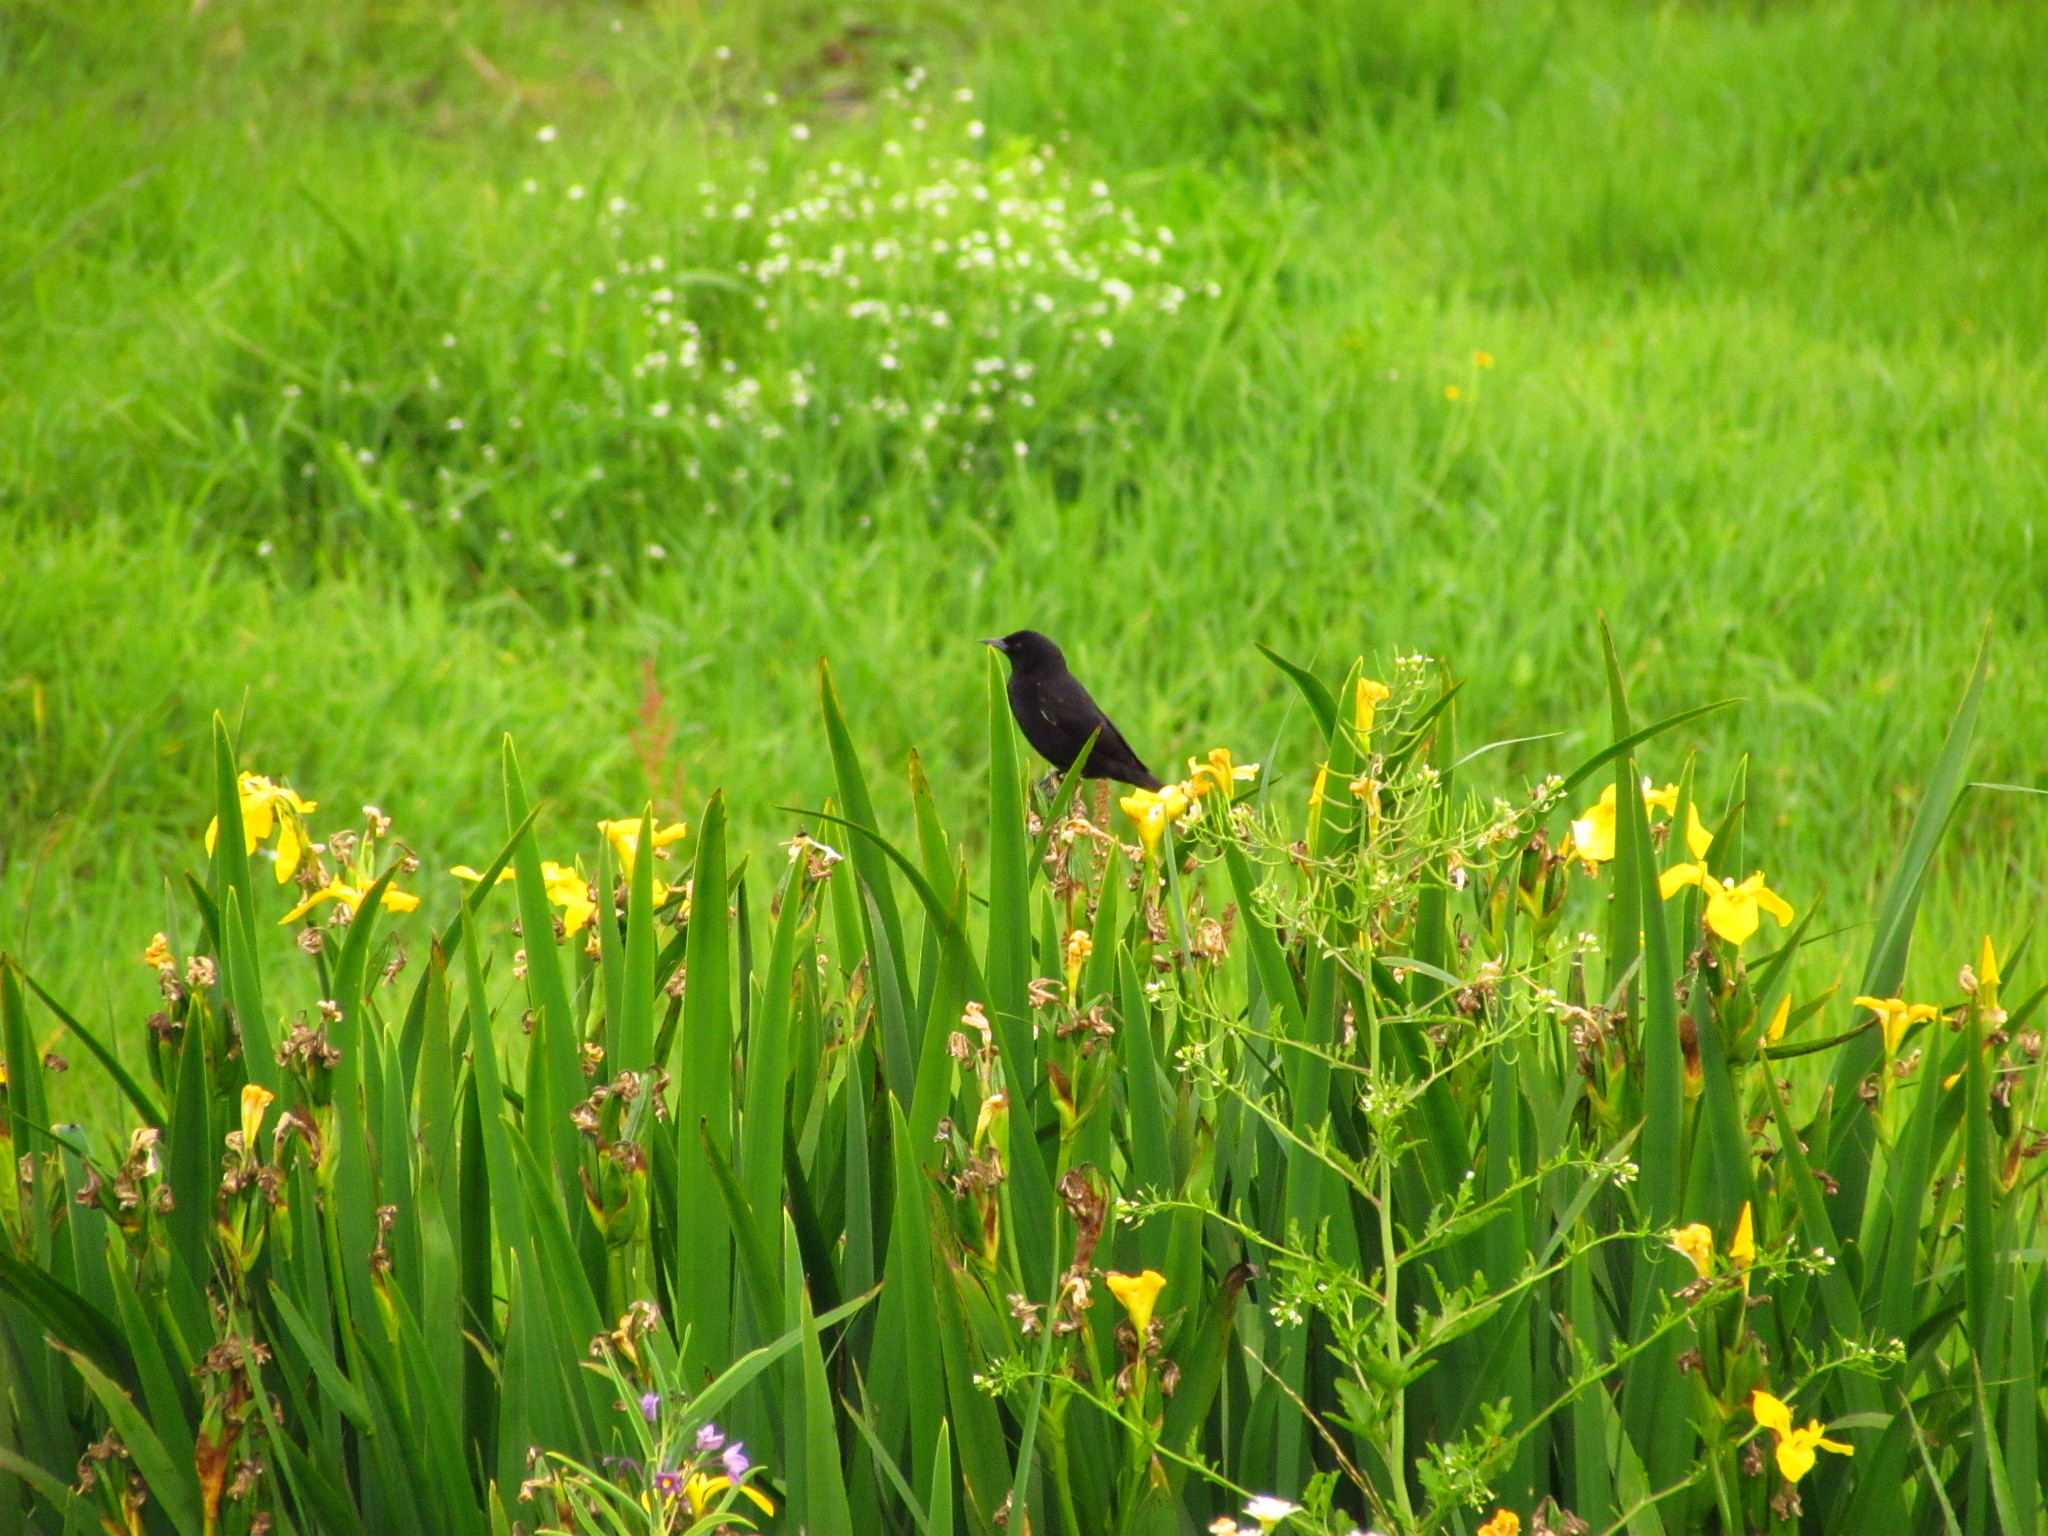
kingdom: Animalia
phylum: Chordata
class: Aves
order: Passeriformes
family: Icteridae
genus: Agelasticus
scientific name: Agelasticus thilius
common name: Yellow-winged blackbird
